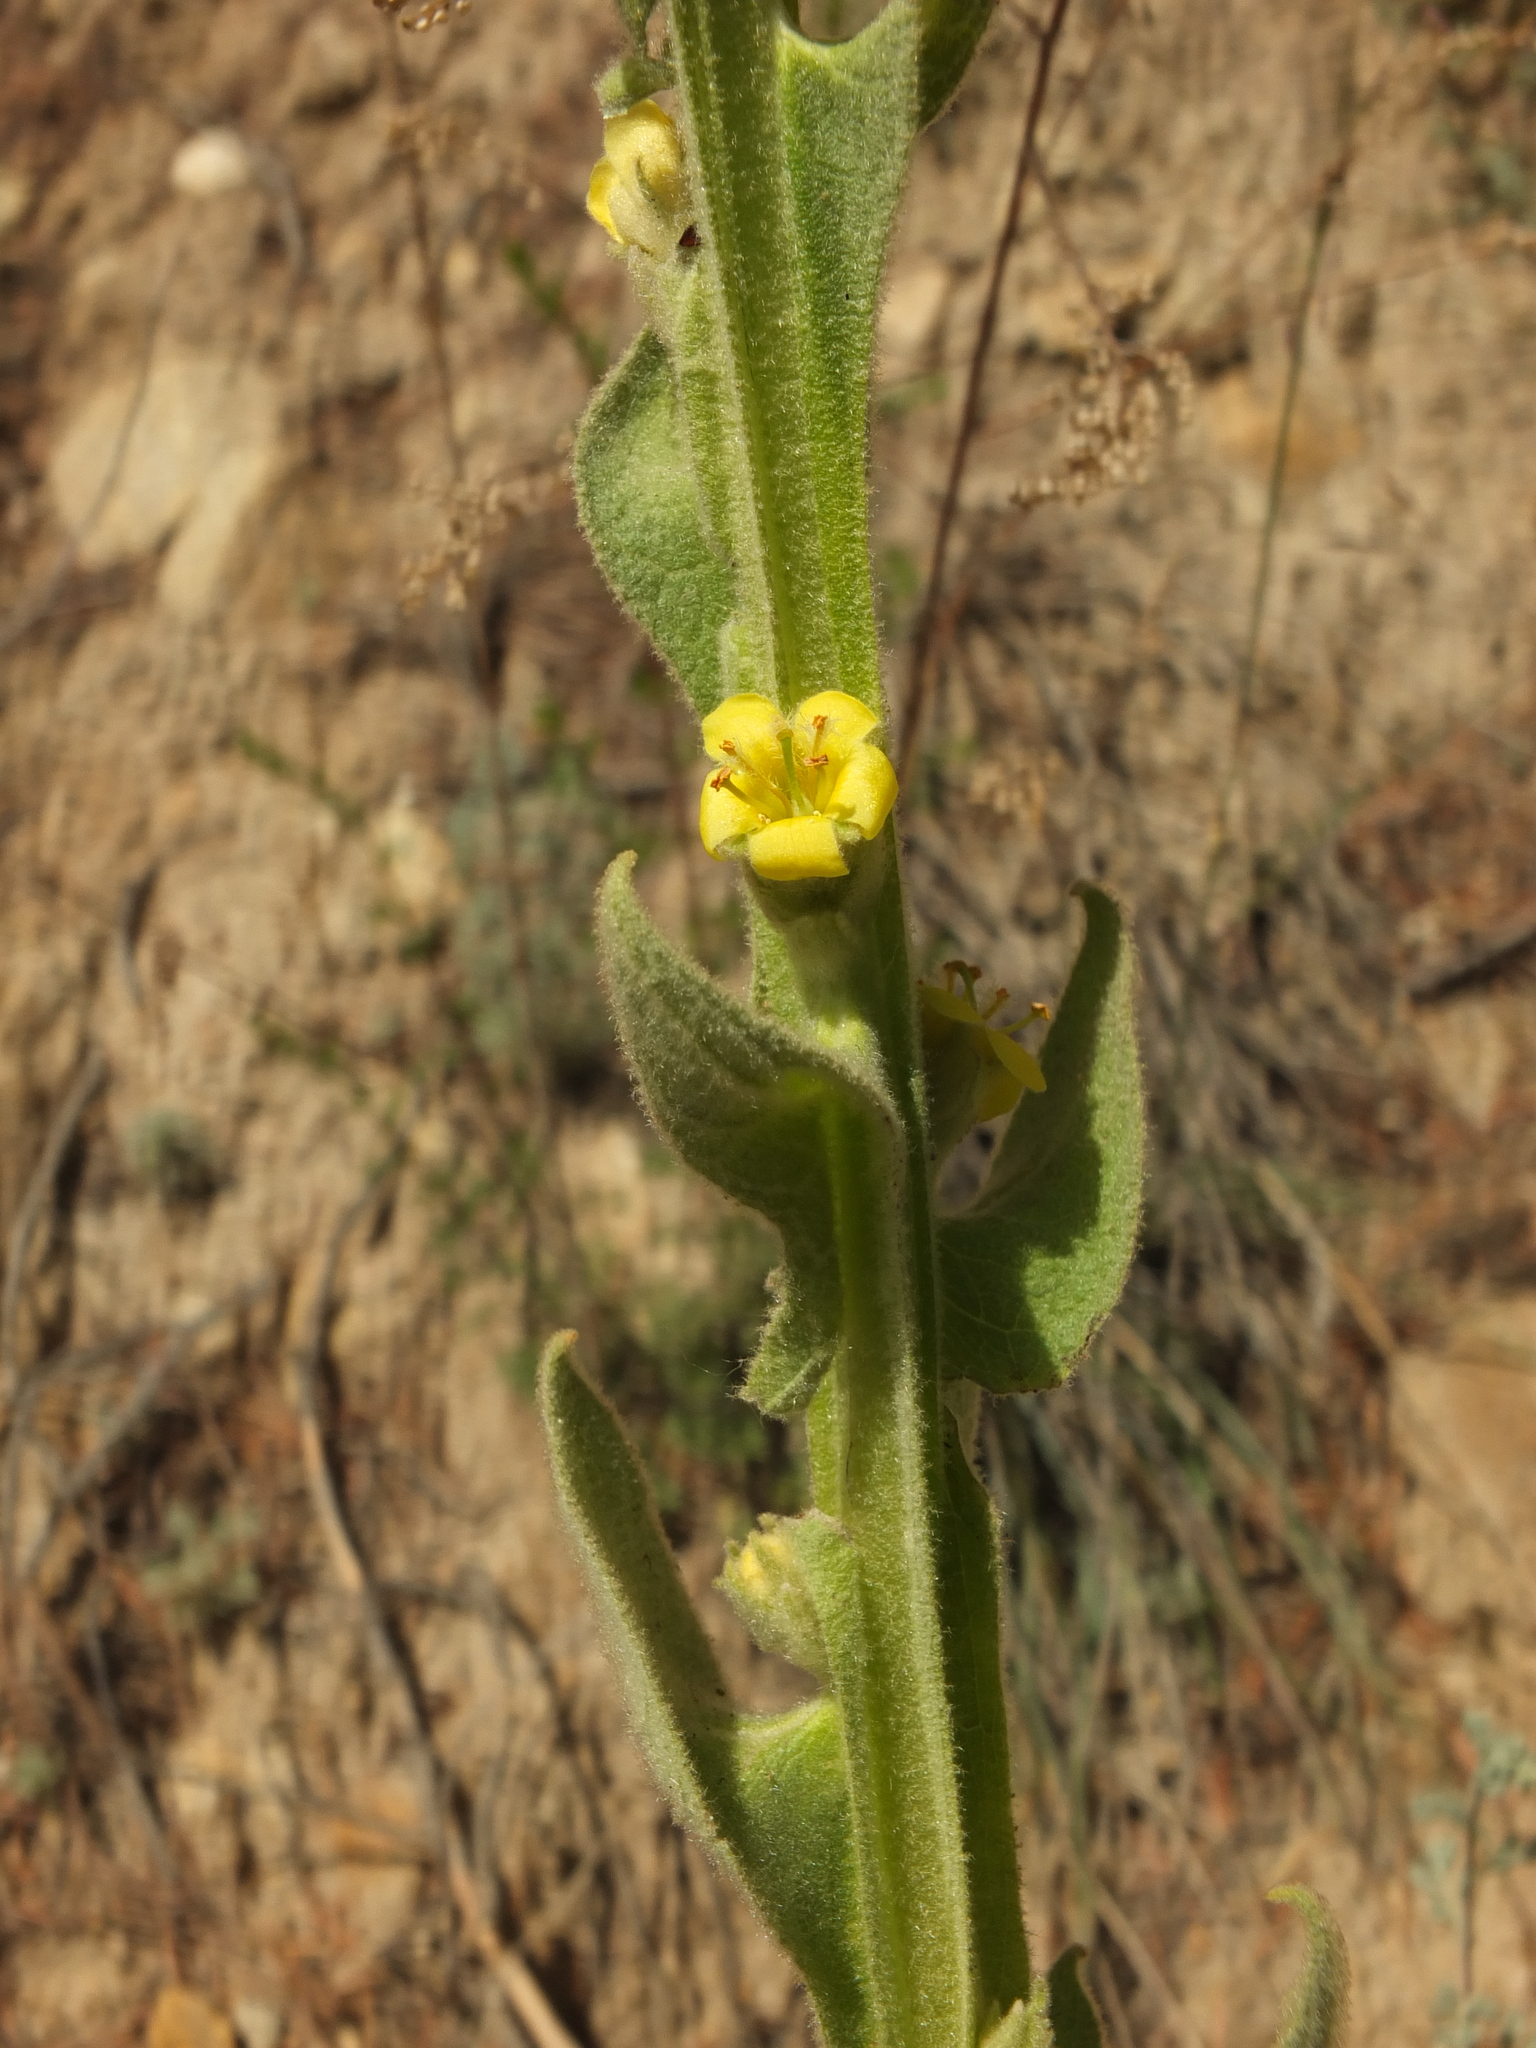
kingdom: Plantae
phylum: Tracheophyta
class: Magnoliopsida
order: Lamiales
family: Scrophulariaceae
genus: Verbascum
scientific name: Verbascum thapsus
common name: Common mullein
